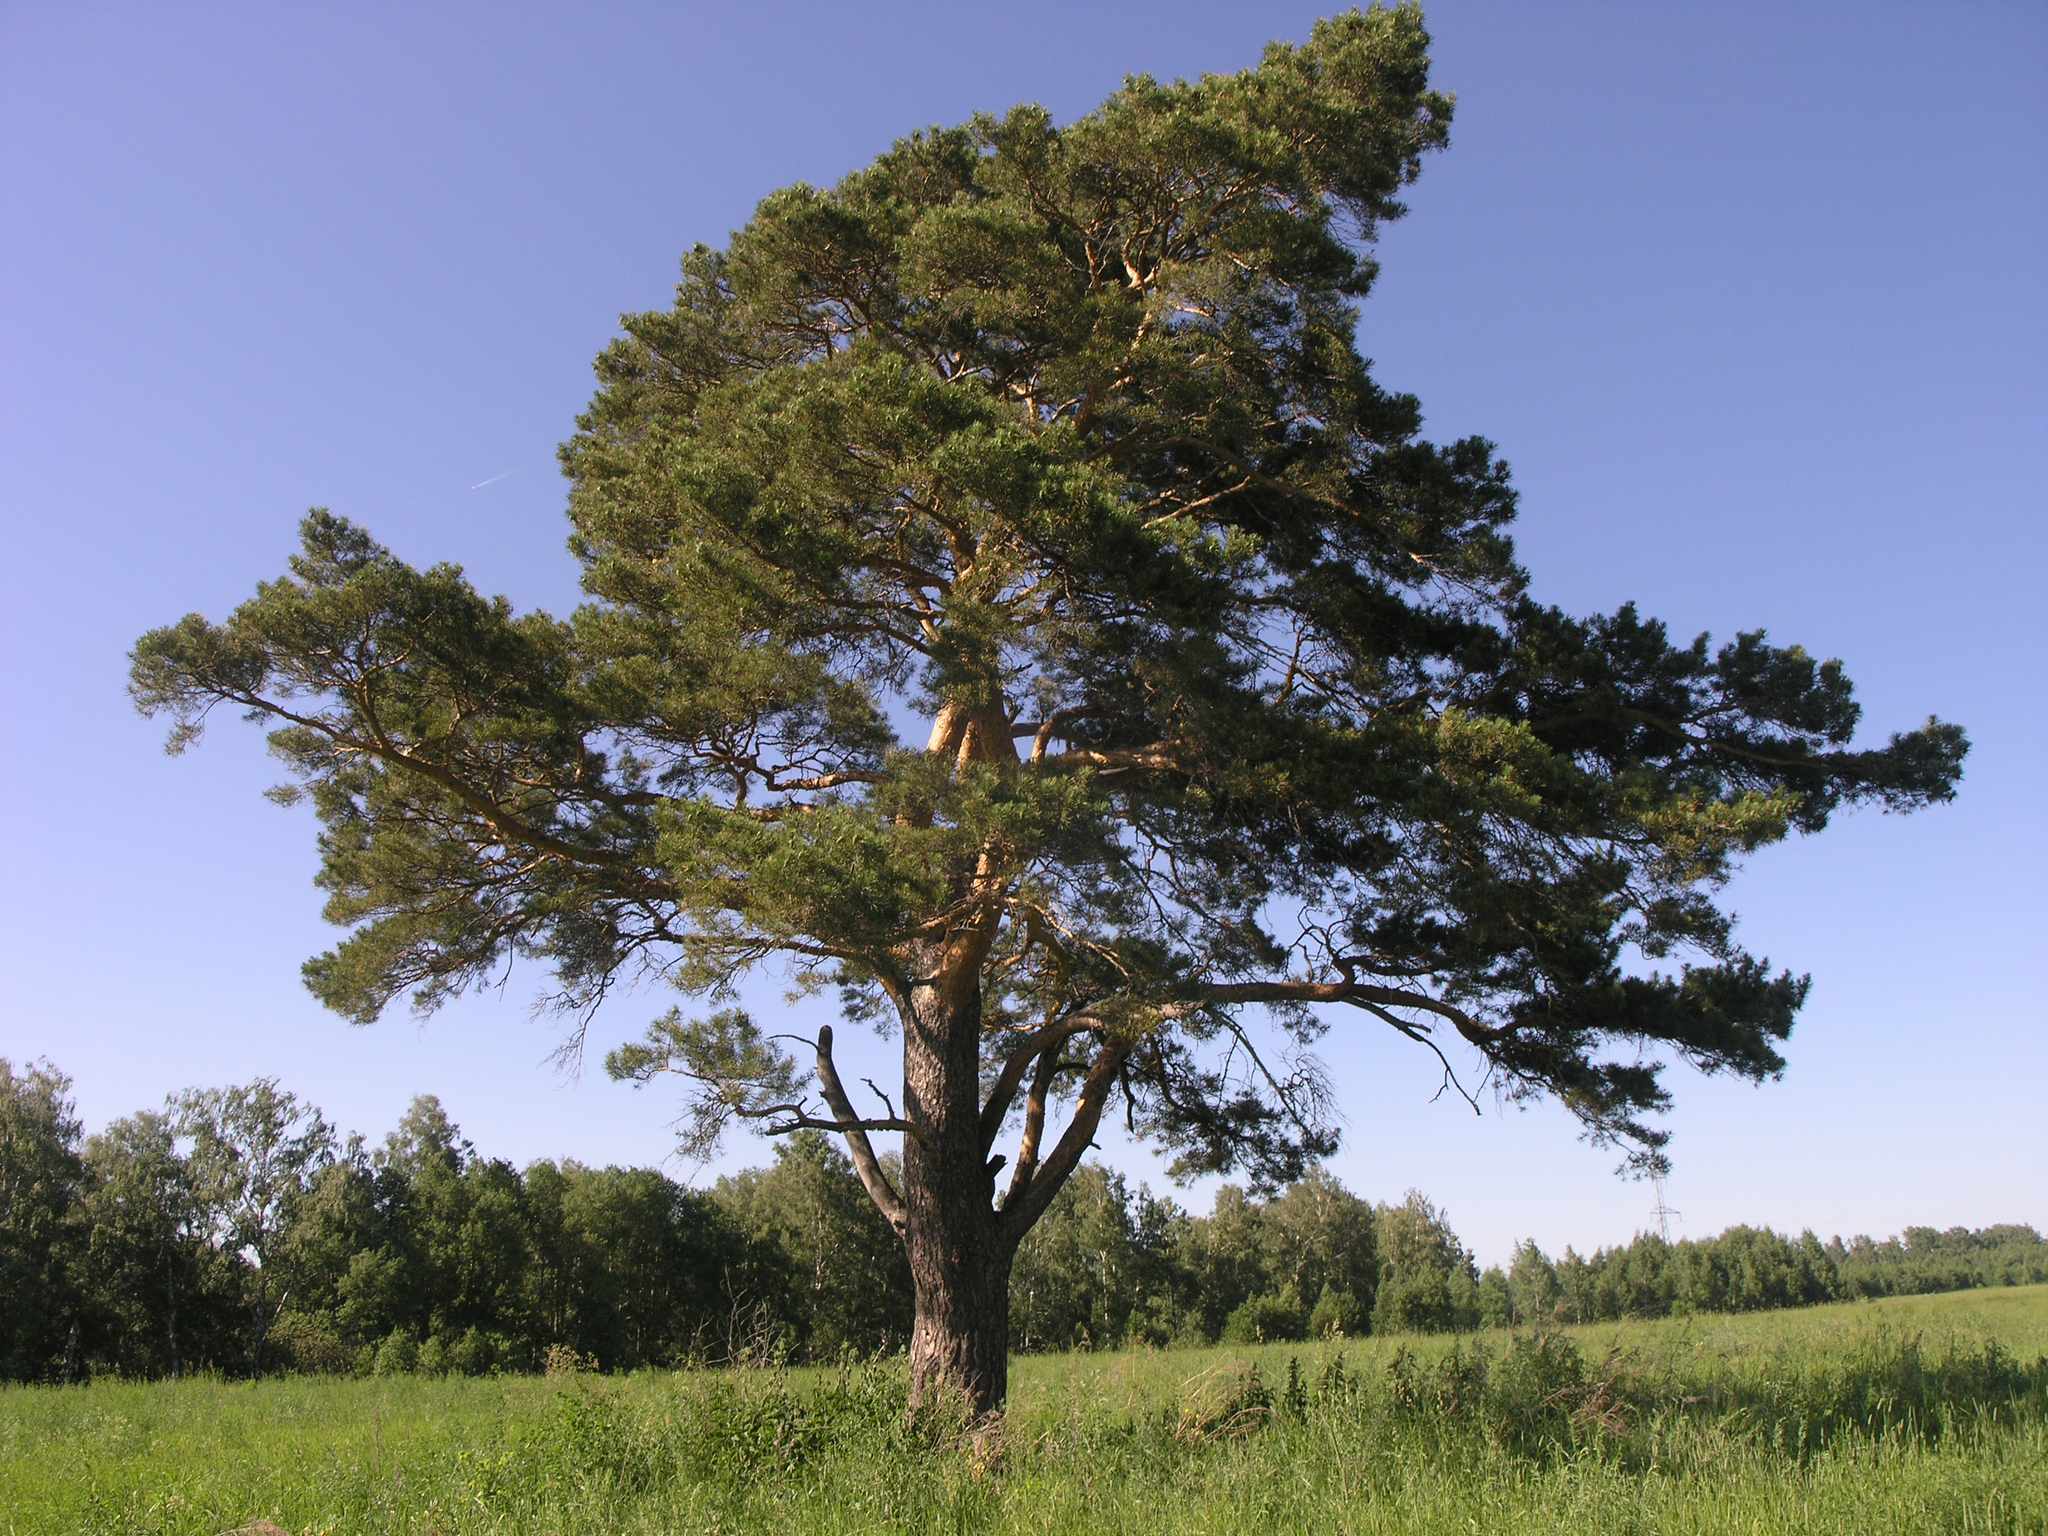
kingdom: Plantae
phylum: Tracheophyta
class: Pinopsida
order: Pinales
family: Pinaceae
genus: Pinus
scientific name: Pinus sylvestris
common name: Scots pine
